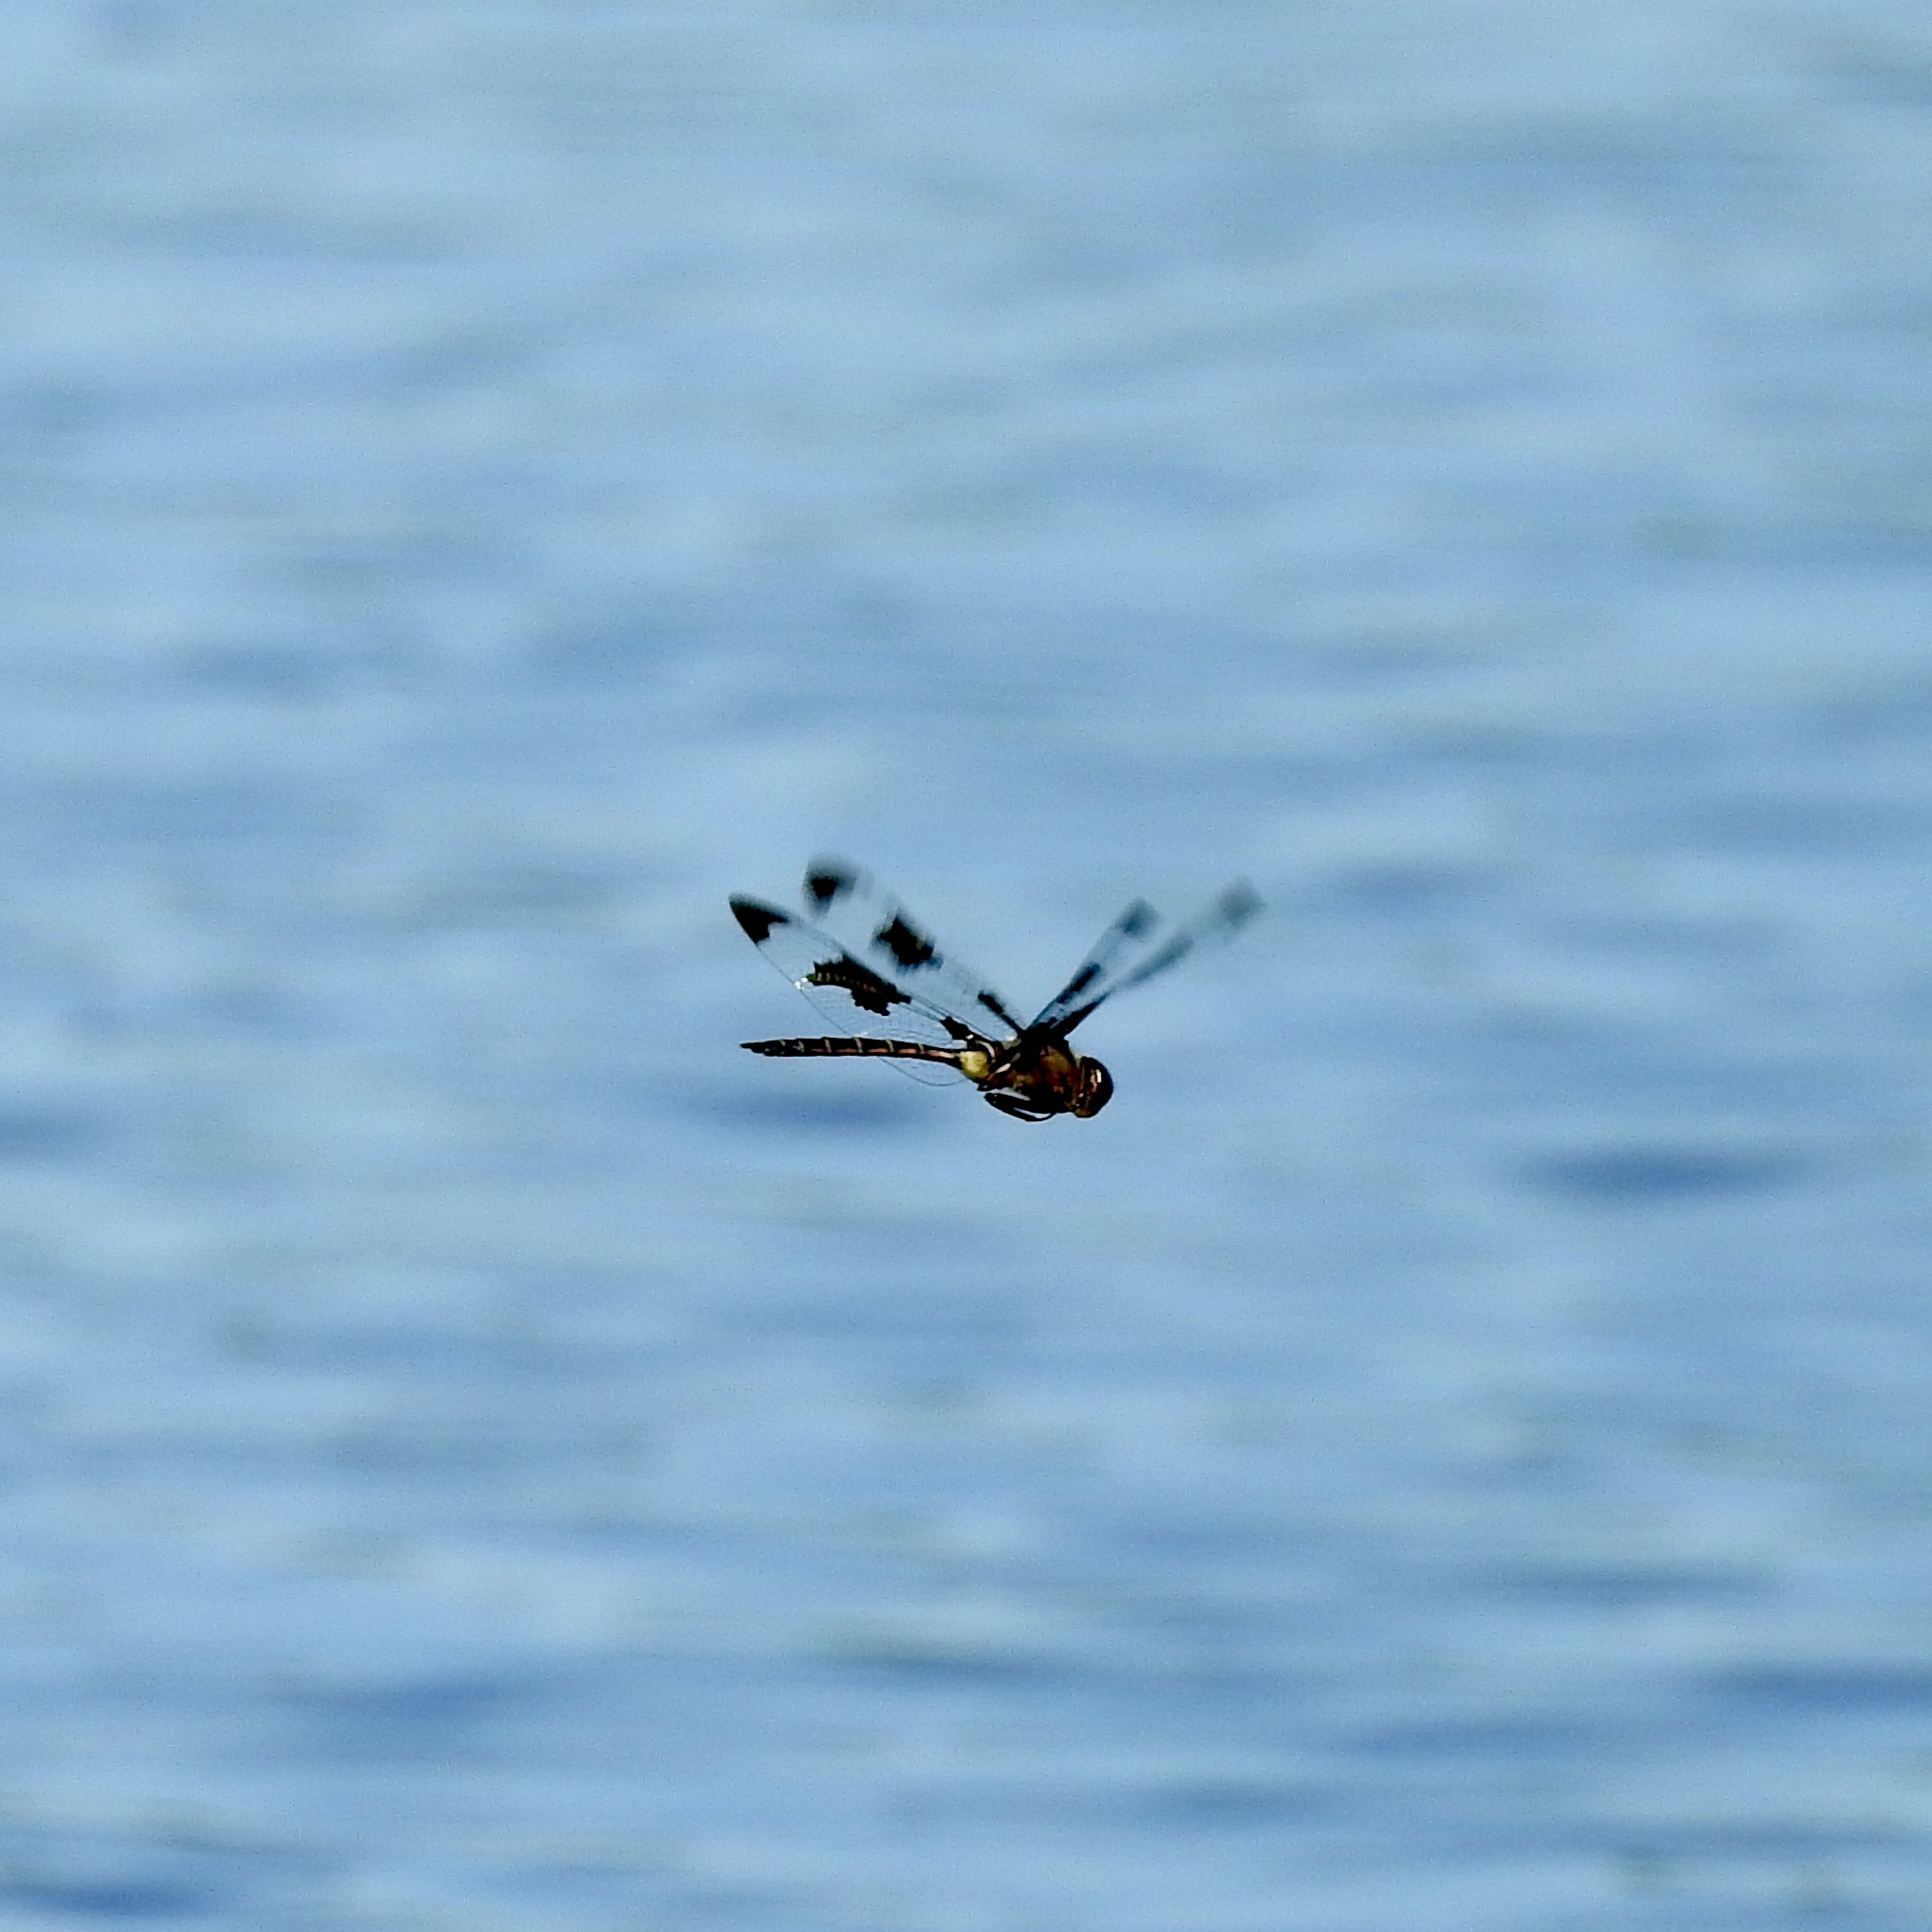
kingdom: Animalia
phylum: Arthropoda
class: Insecta
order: Odonata
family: Corduliidae
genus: Epitheca
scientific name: Epitheca princeps
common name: Prince baskettail
